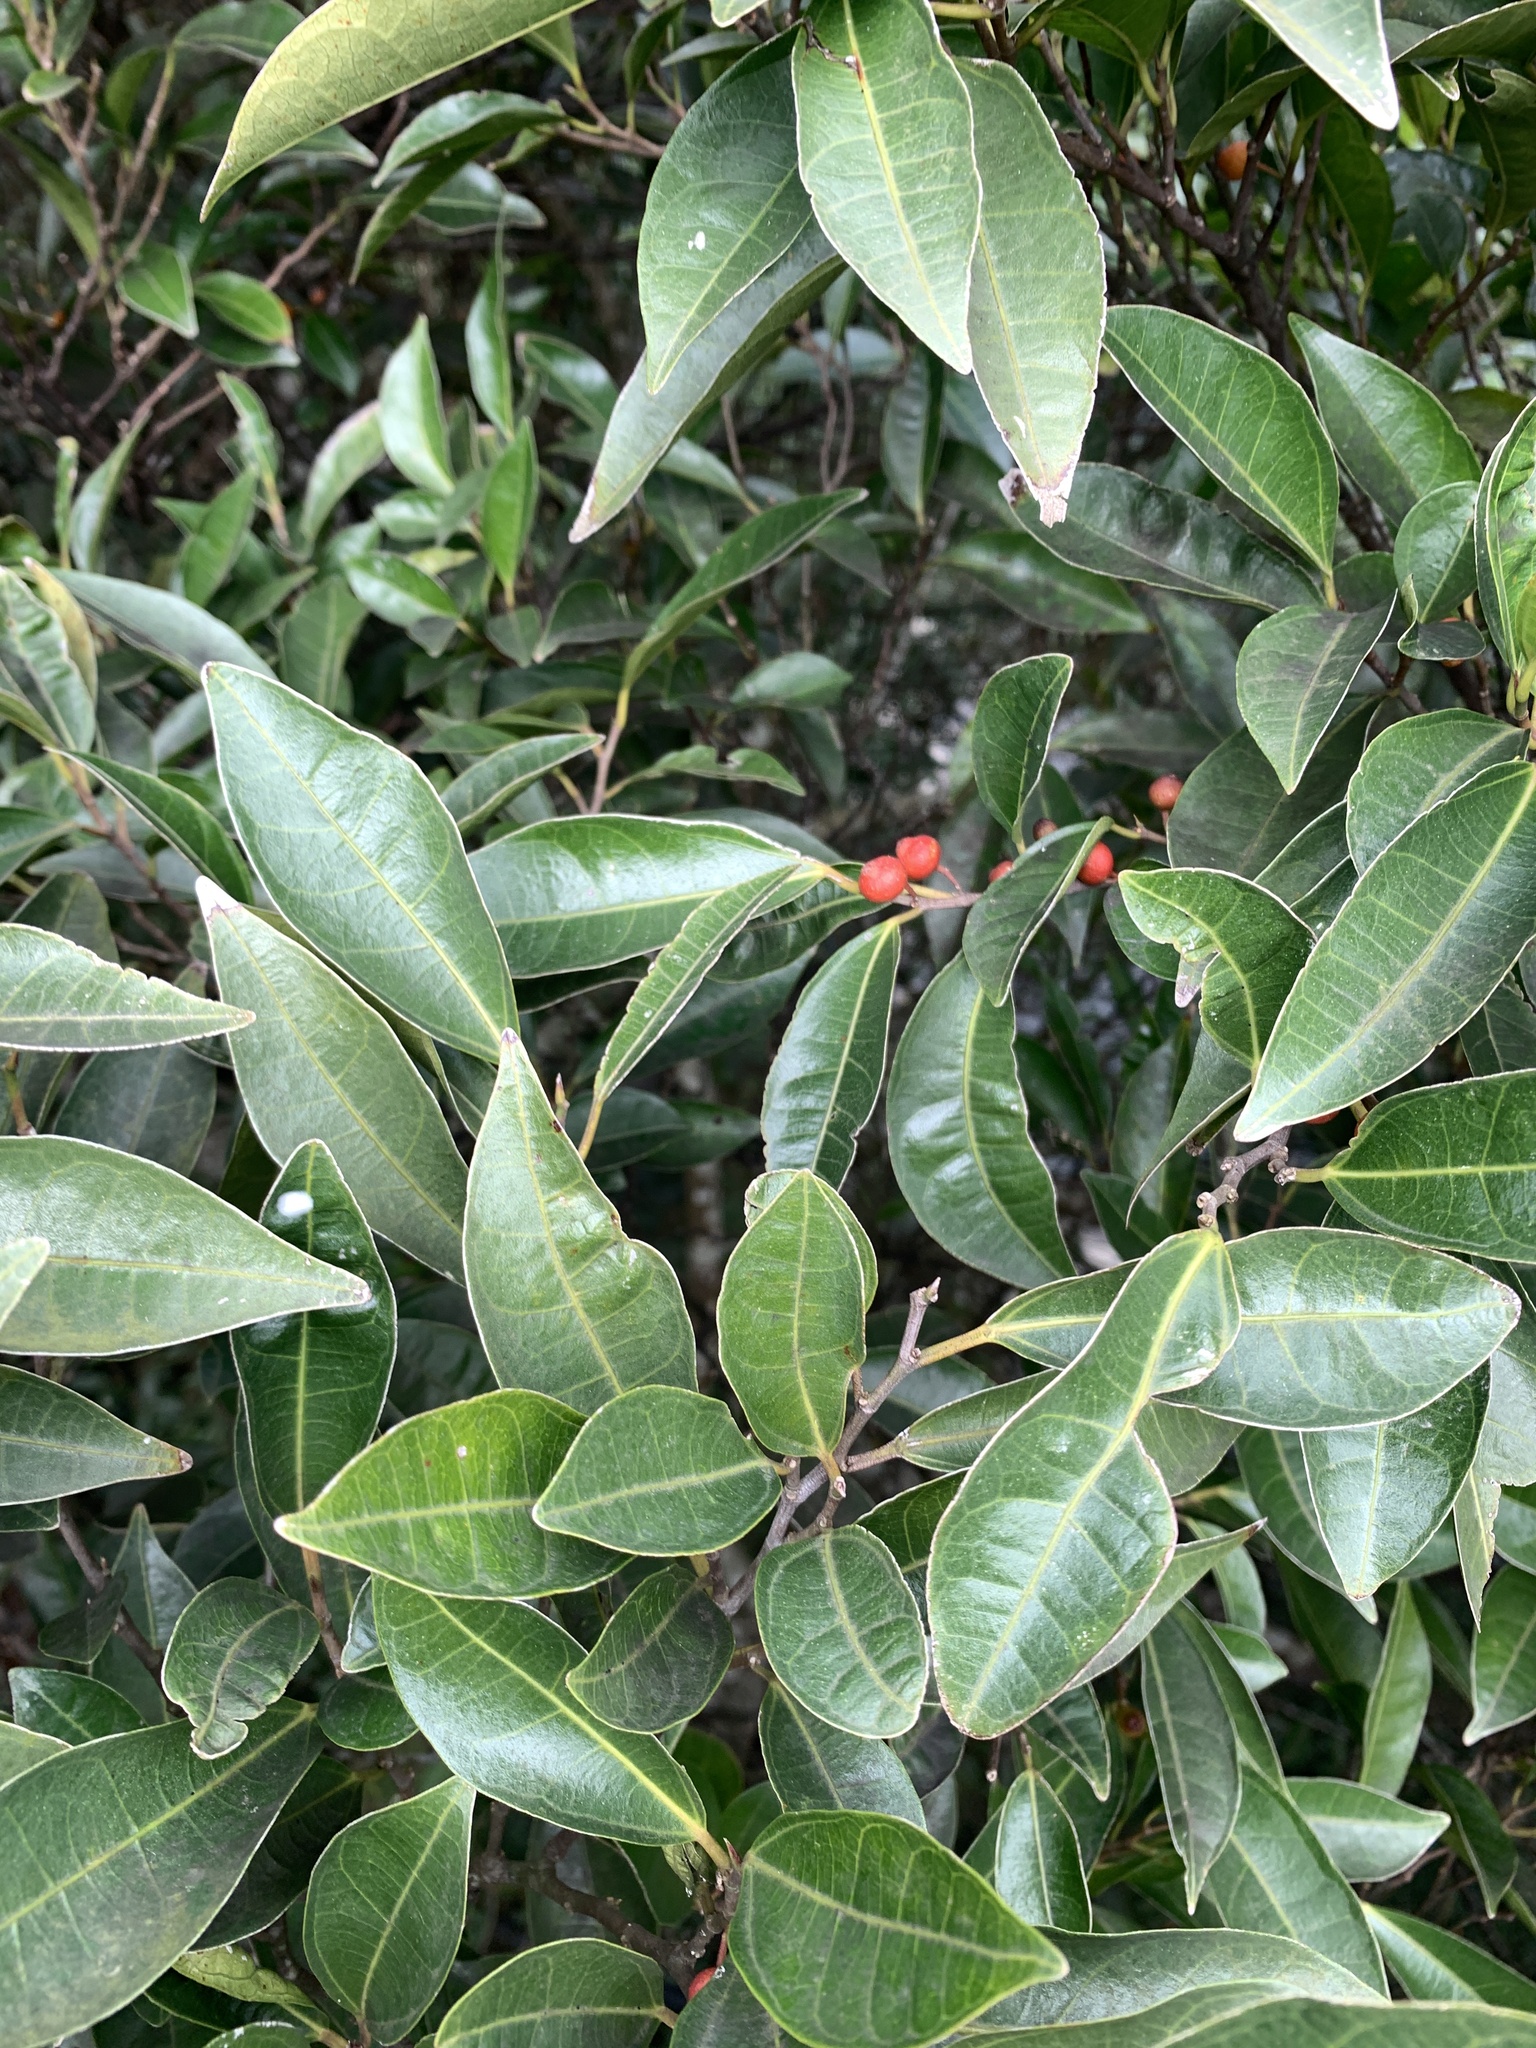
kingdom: Plantae
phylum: Tracheophyta
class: Magnoliopsida
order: Rosales
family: Moraceae
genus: Ficus
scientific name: Ficus ampelos
